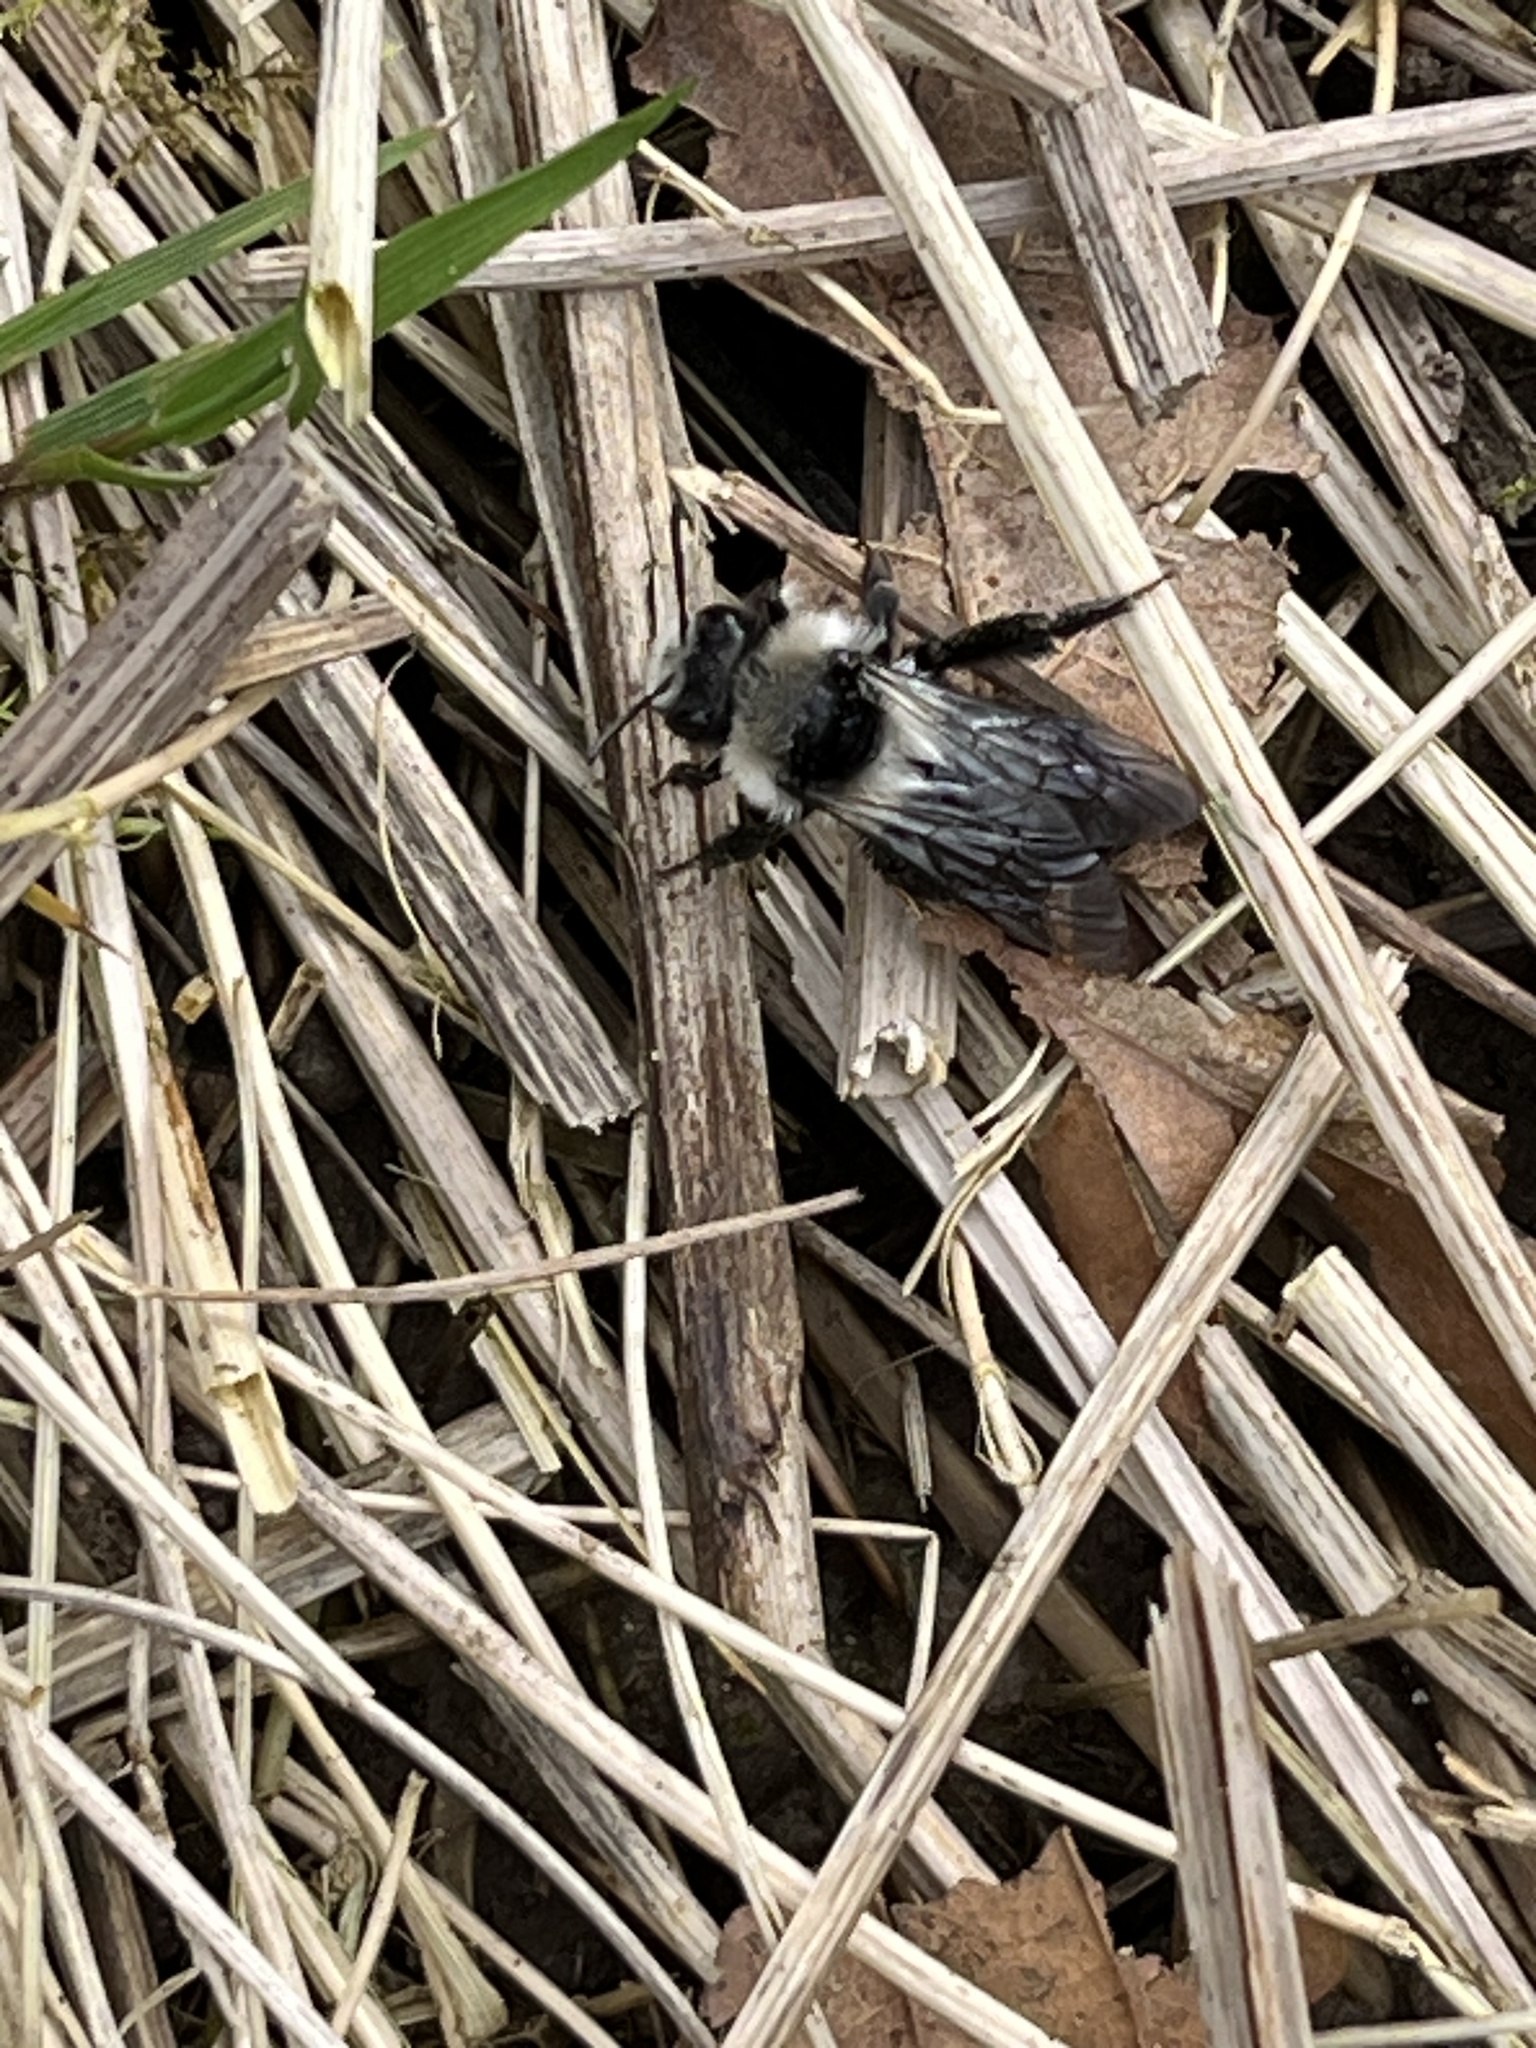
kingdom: Animalia
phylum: Arthropoda
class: Insecta
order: Hymenoptera
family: Andrenidae
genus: Andrena
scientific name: Andrena cineraria
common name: Ashy mining bee
